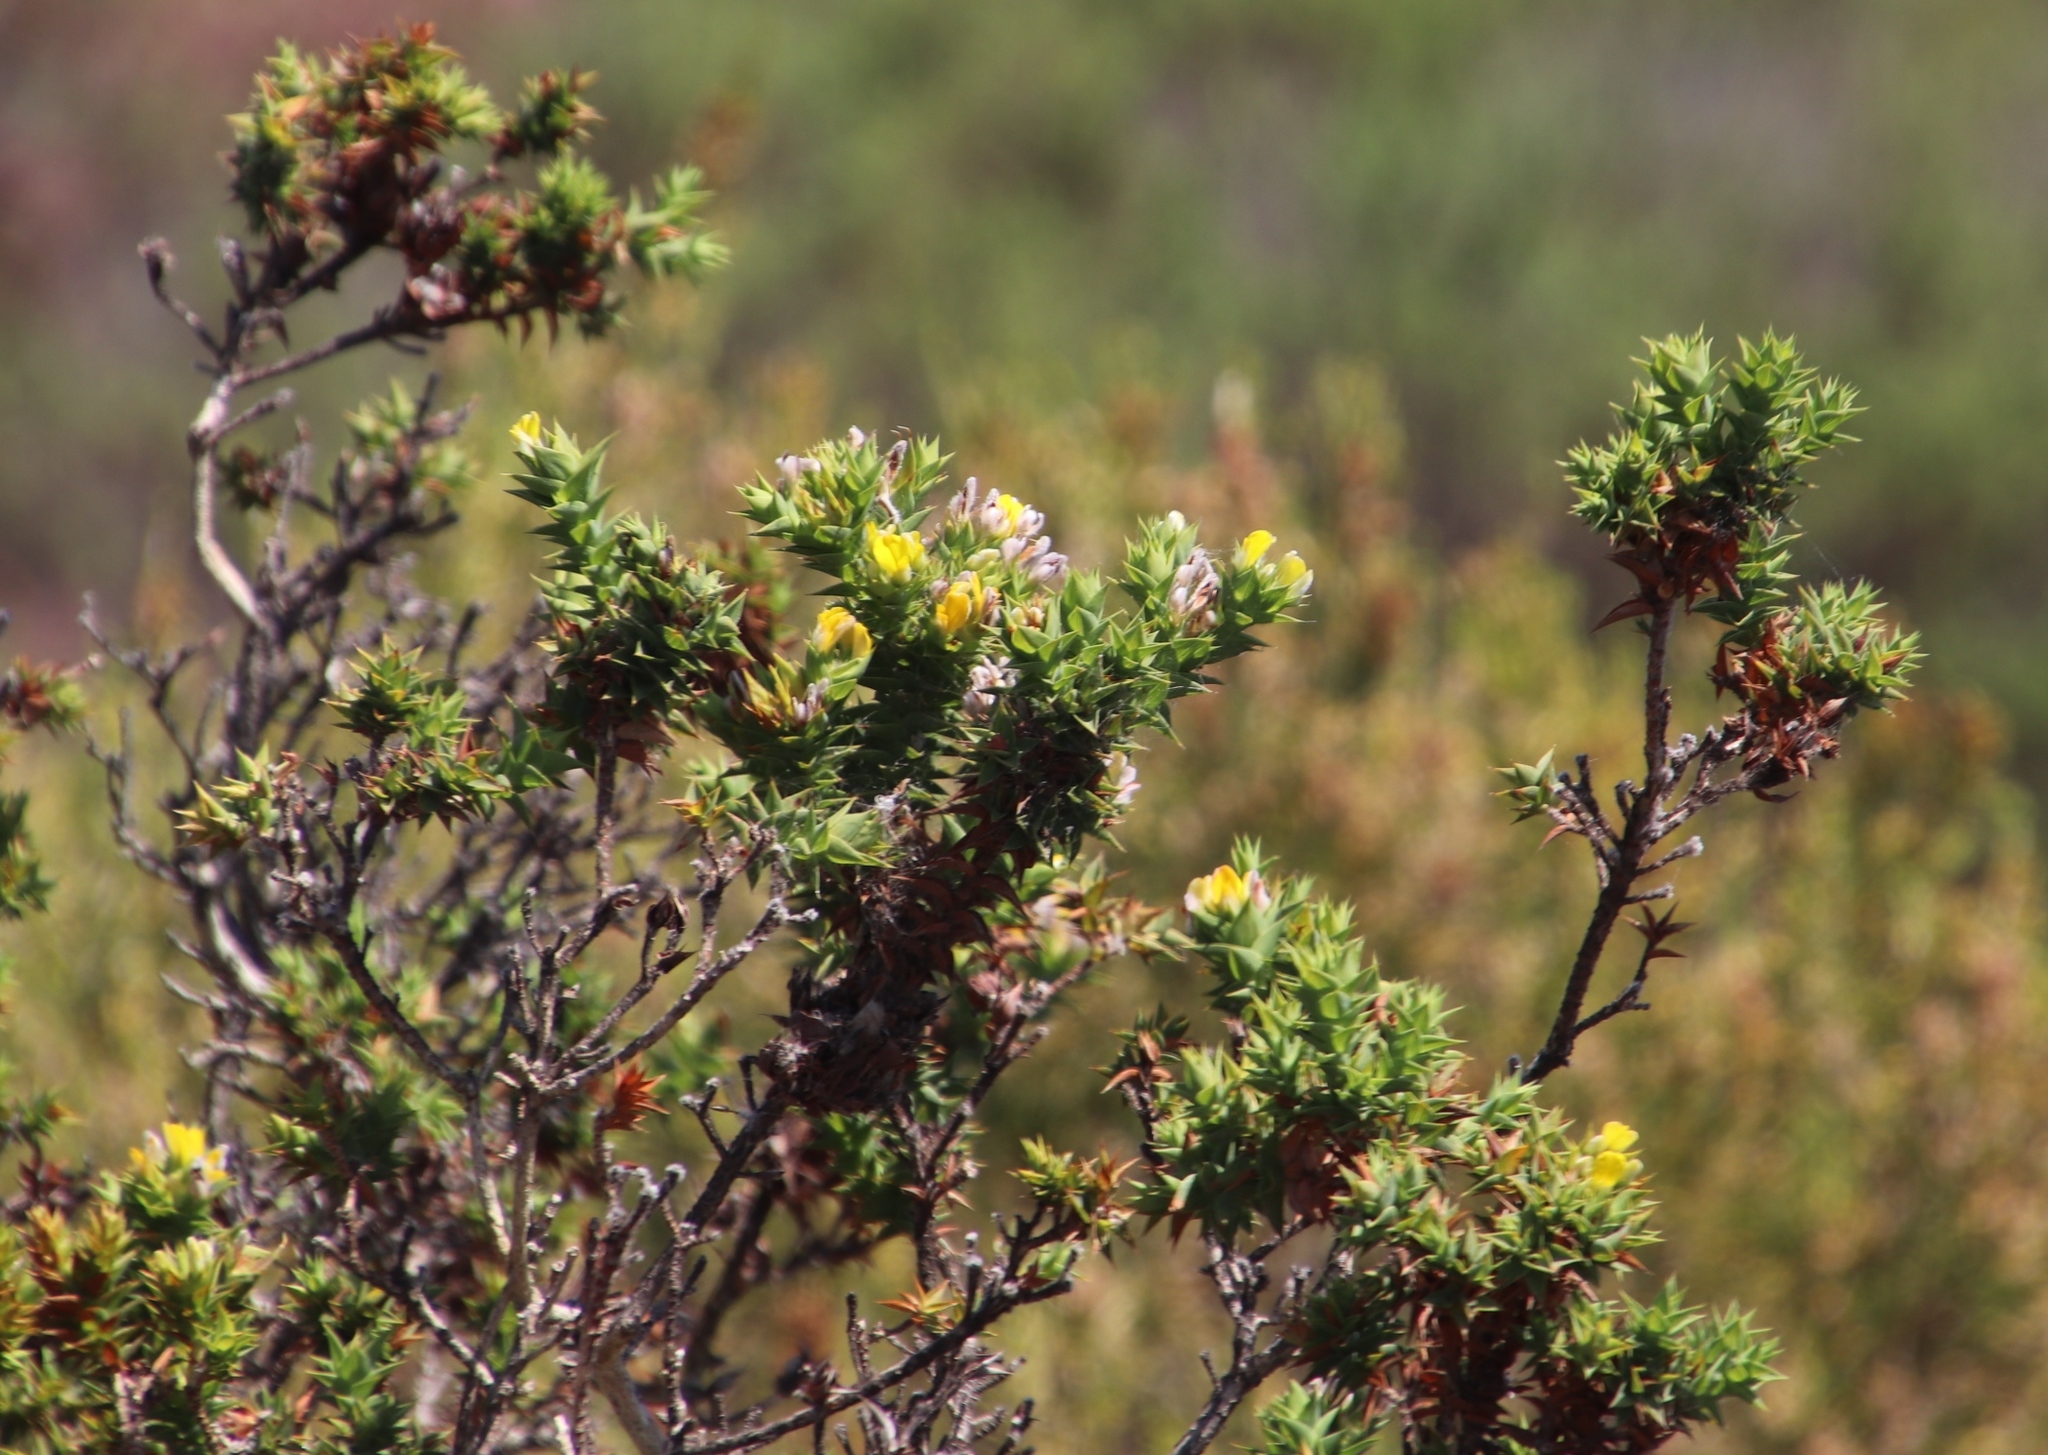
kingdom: Plantae
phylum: Tracheophyta
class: Magnoliopsida
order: Fabales
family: Fabaceae
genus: Aspalathus
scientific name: Aspalathus cordata
